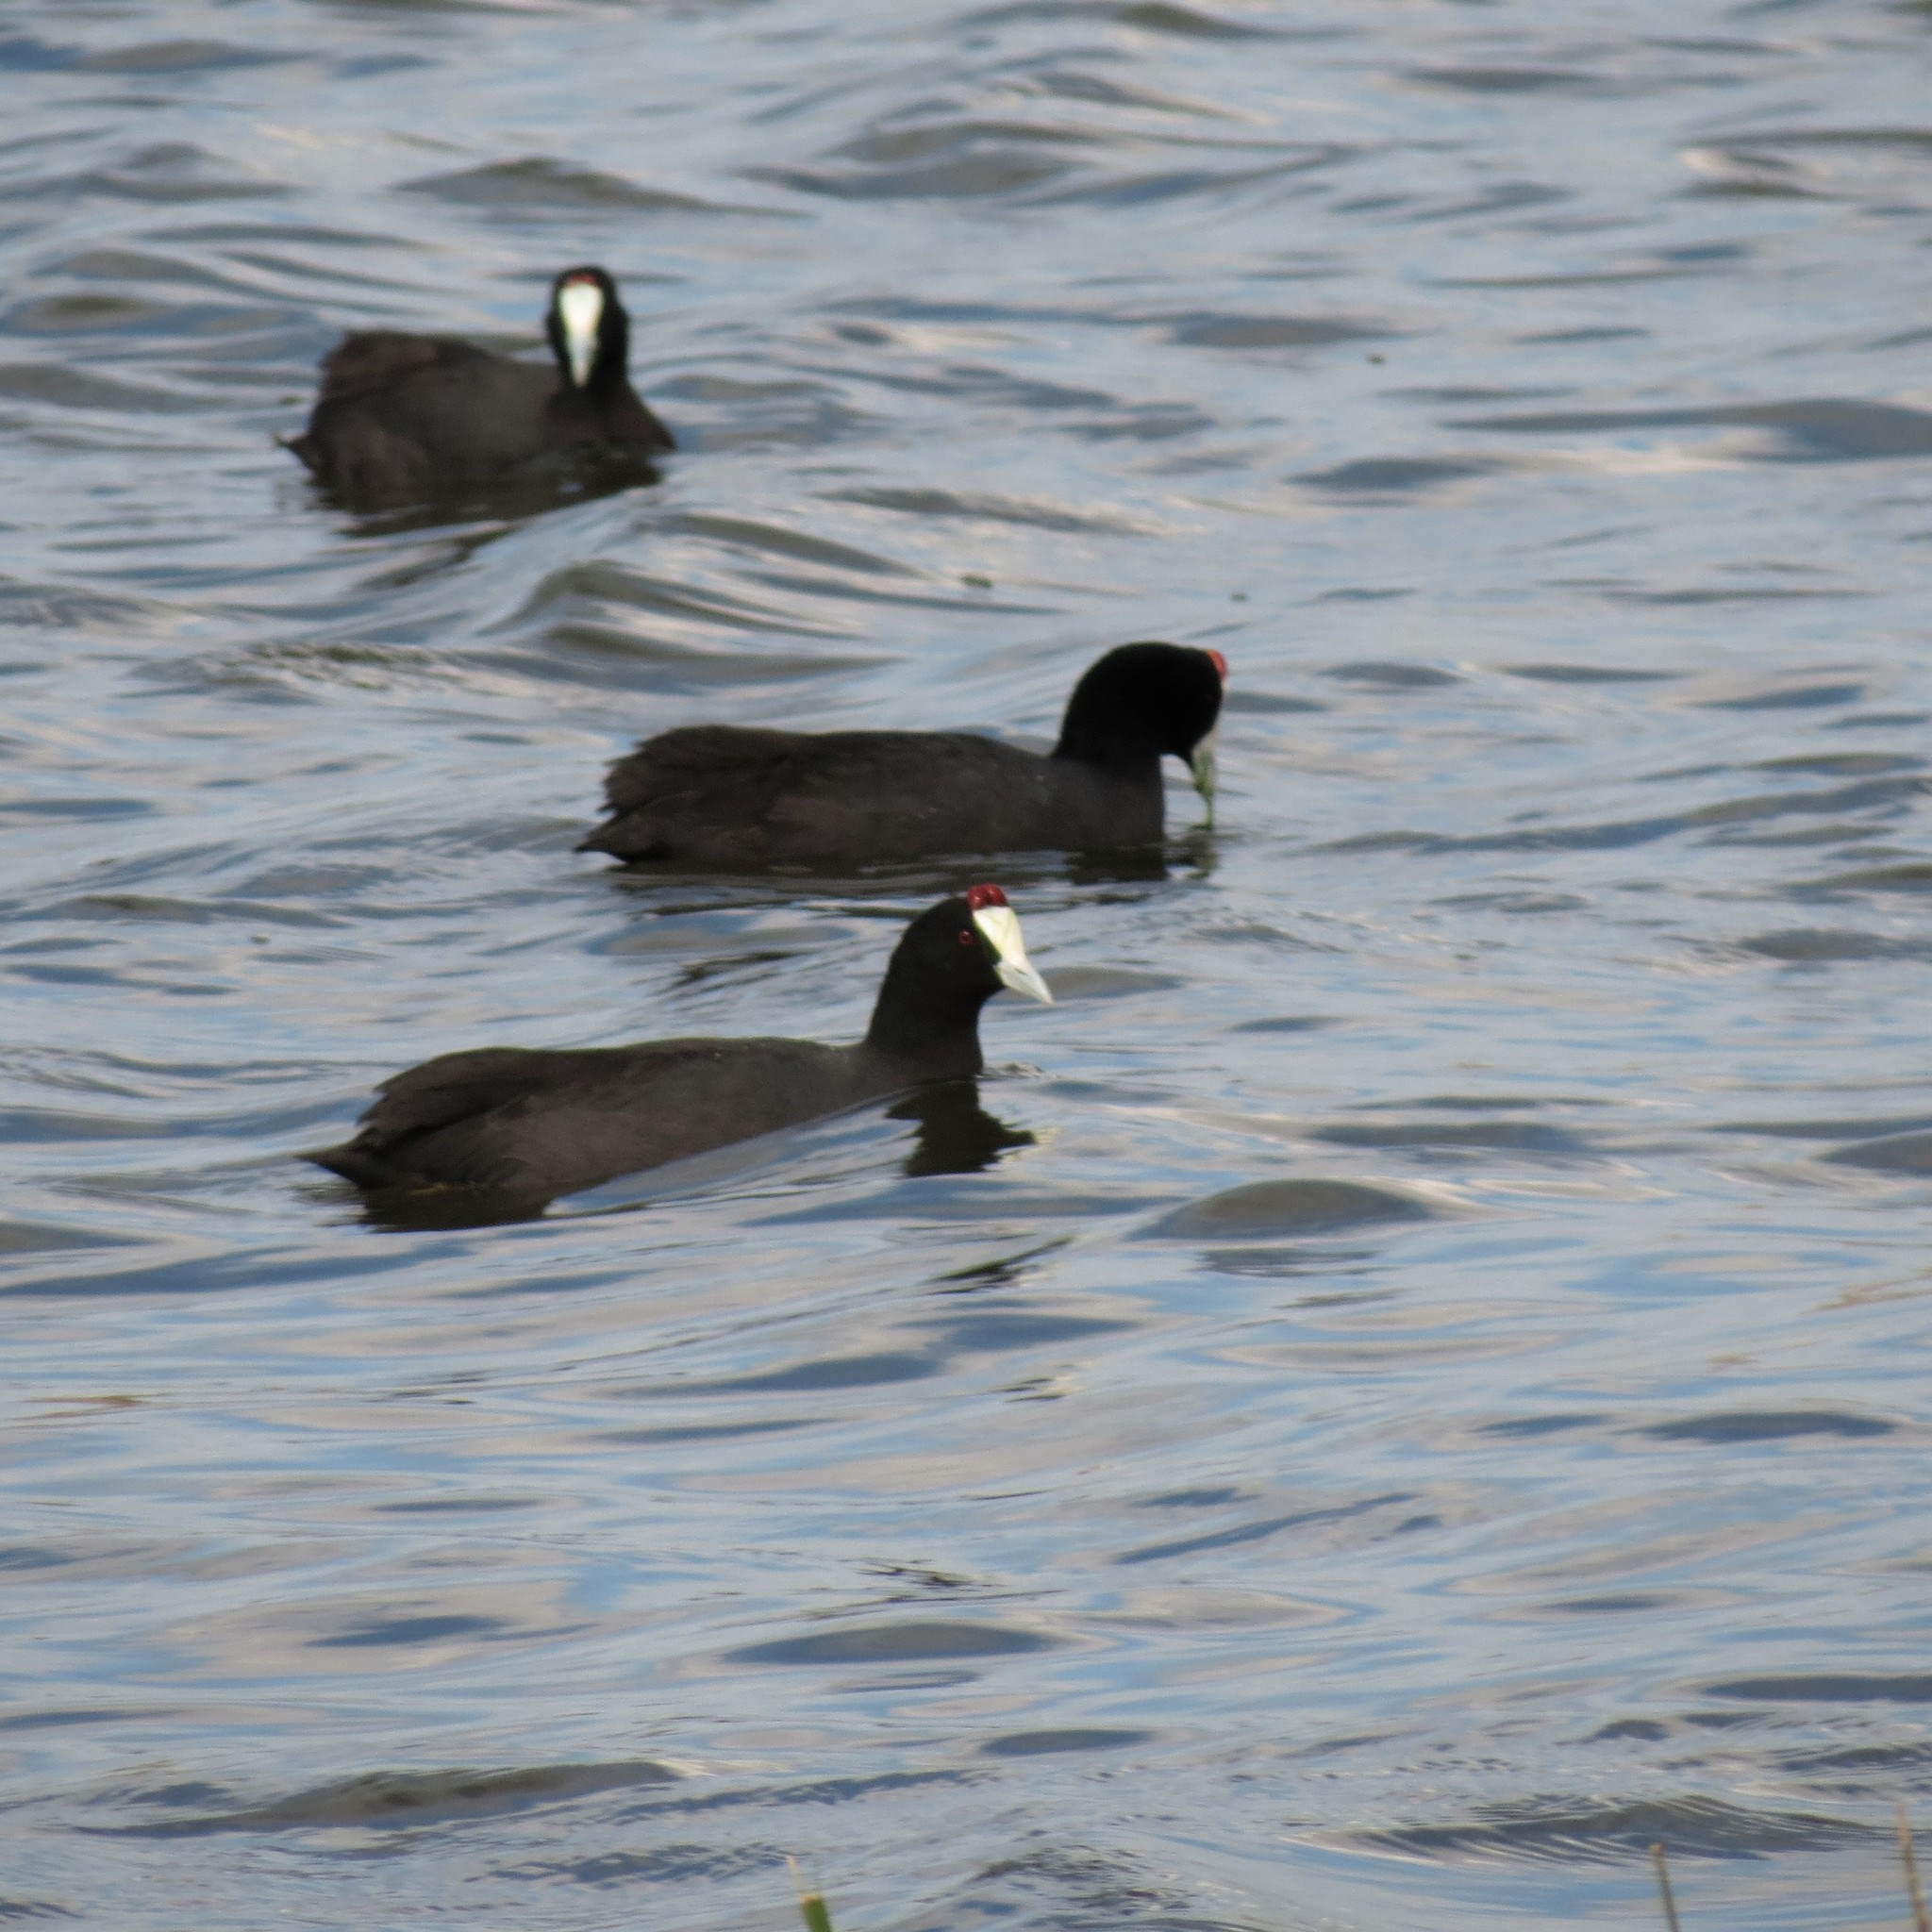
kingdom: Animalia
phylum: Chordata
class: Aves
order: Gruiformes
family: Rallidae
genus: Fulica
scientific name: Fulica cristata
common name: Red-knobbed coot
